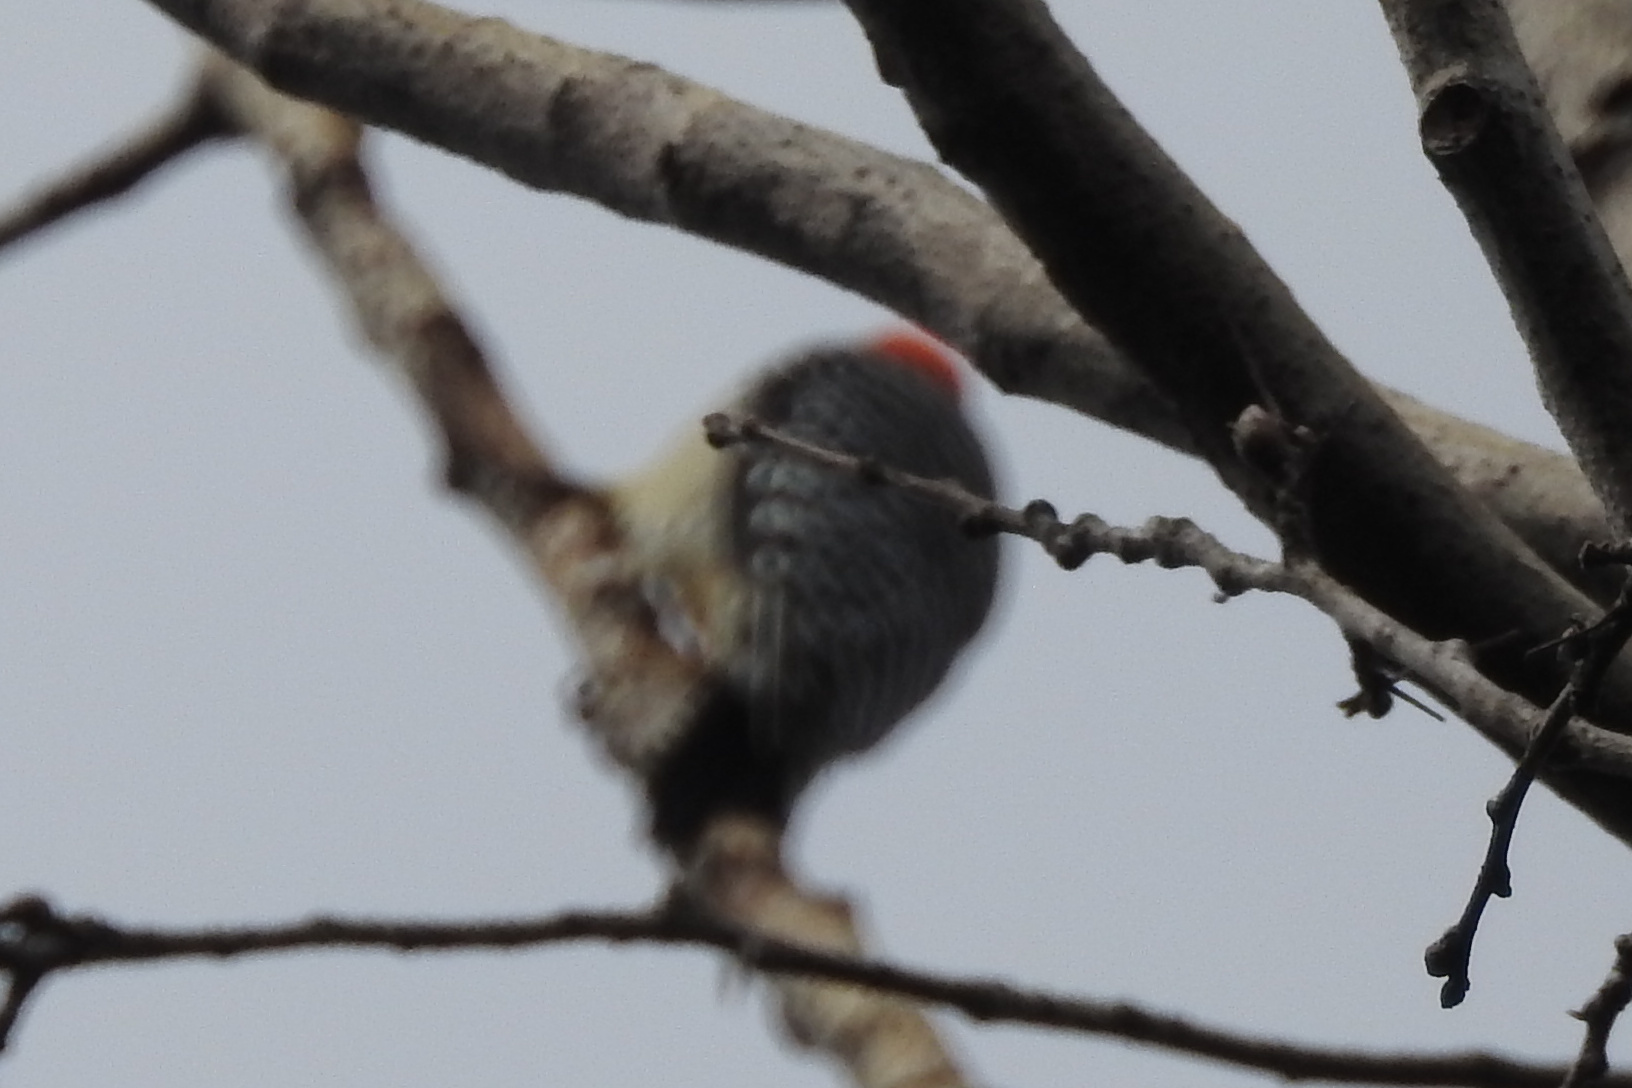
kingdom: Animalia
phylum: Chordata
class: Aves
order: Piciformes
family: Picidae
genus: Melanerpes
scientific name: Melanerpes carolinus
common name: Red-bellied woodpecker
